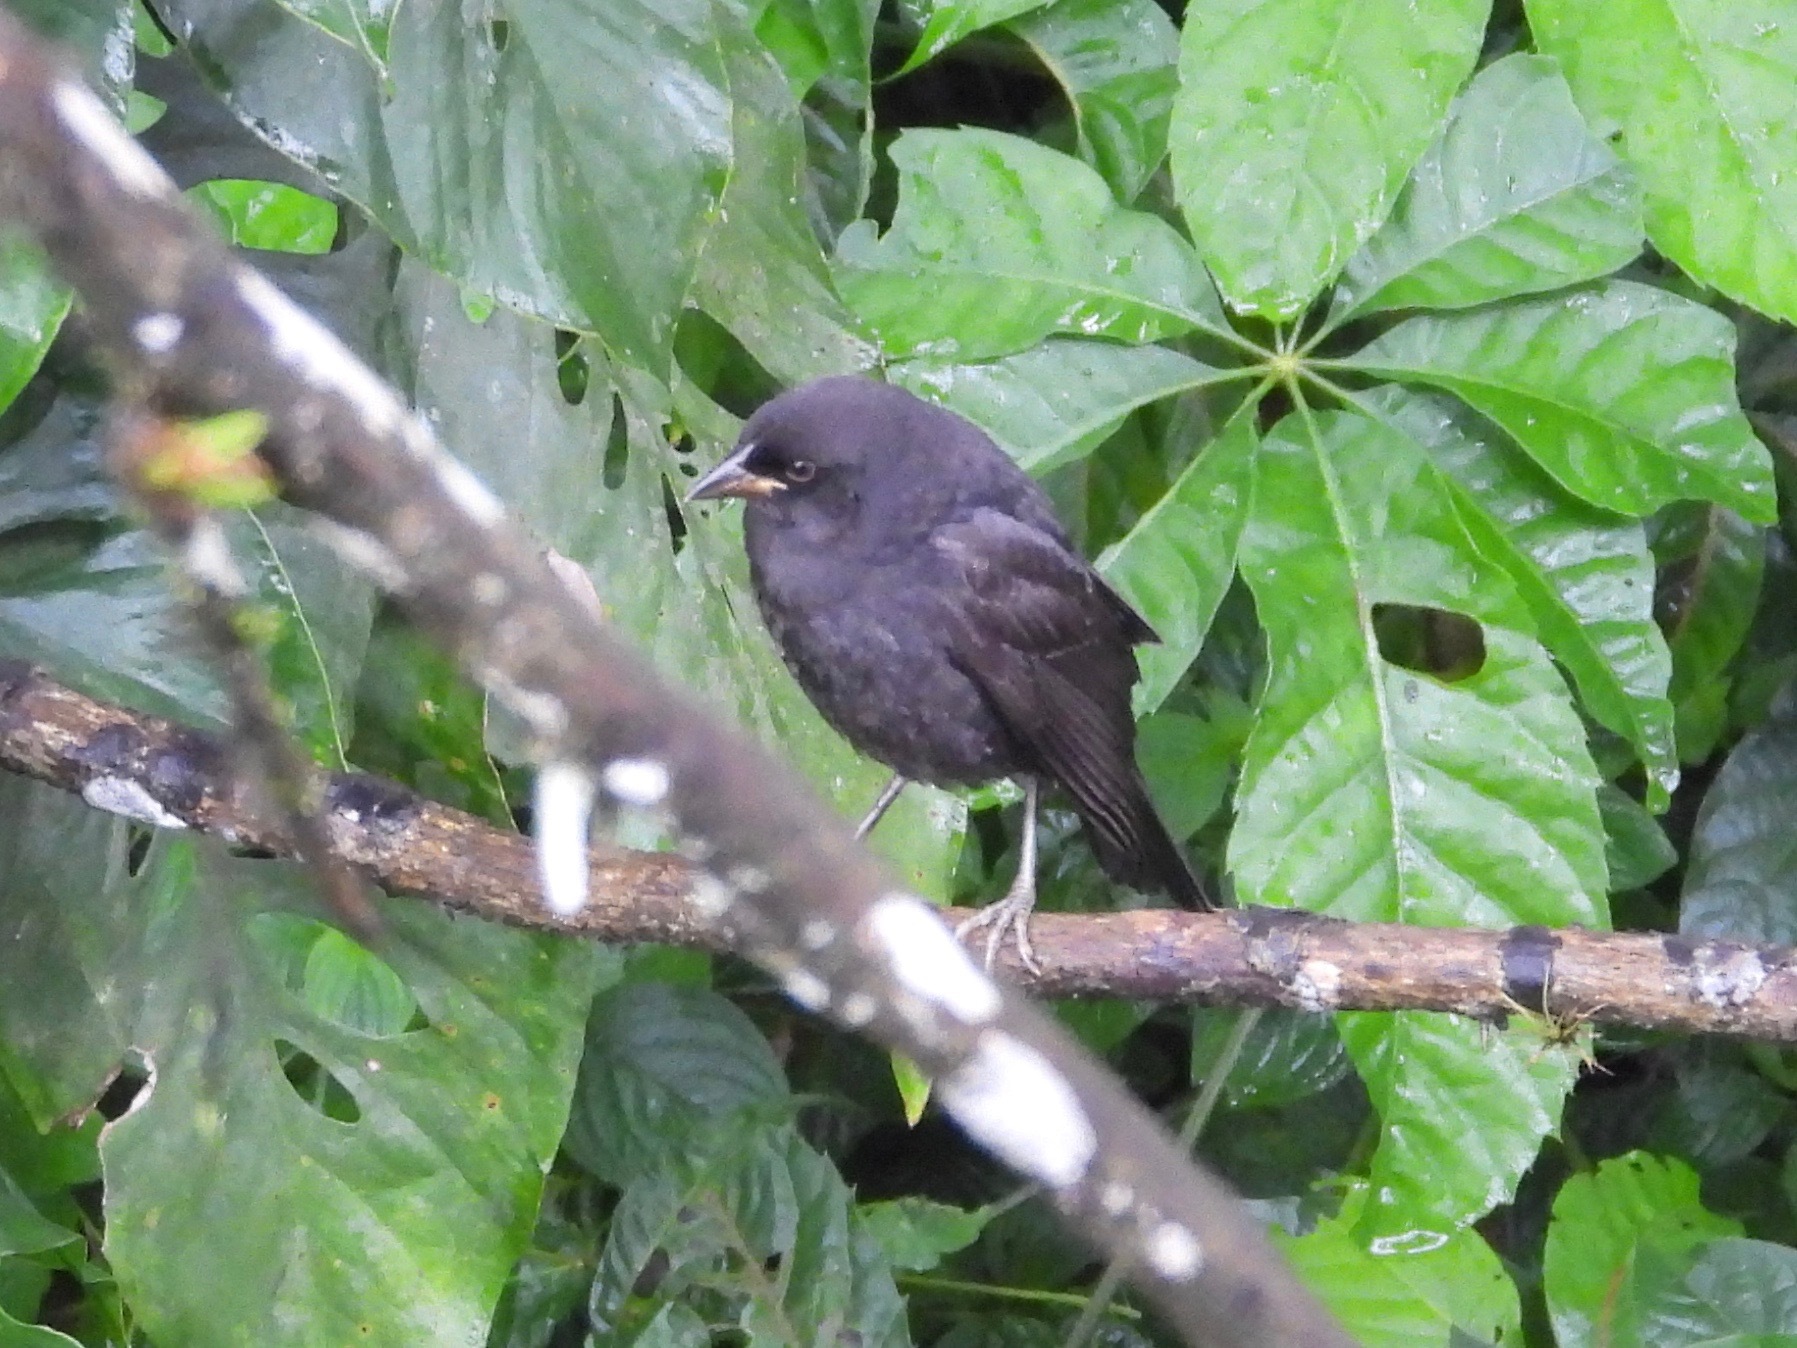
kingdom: Animalia
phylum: Chordata
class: Aves
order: Passeriformes
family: Icteridae
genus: Molothrus
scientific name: Molothrus aeneus
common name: Bronzed cowbird
